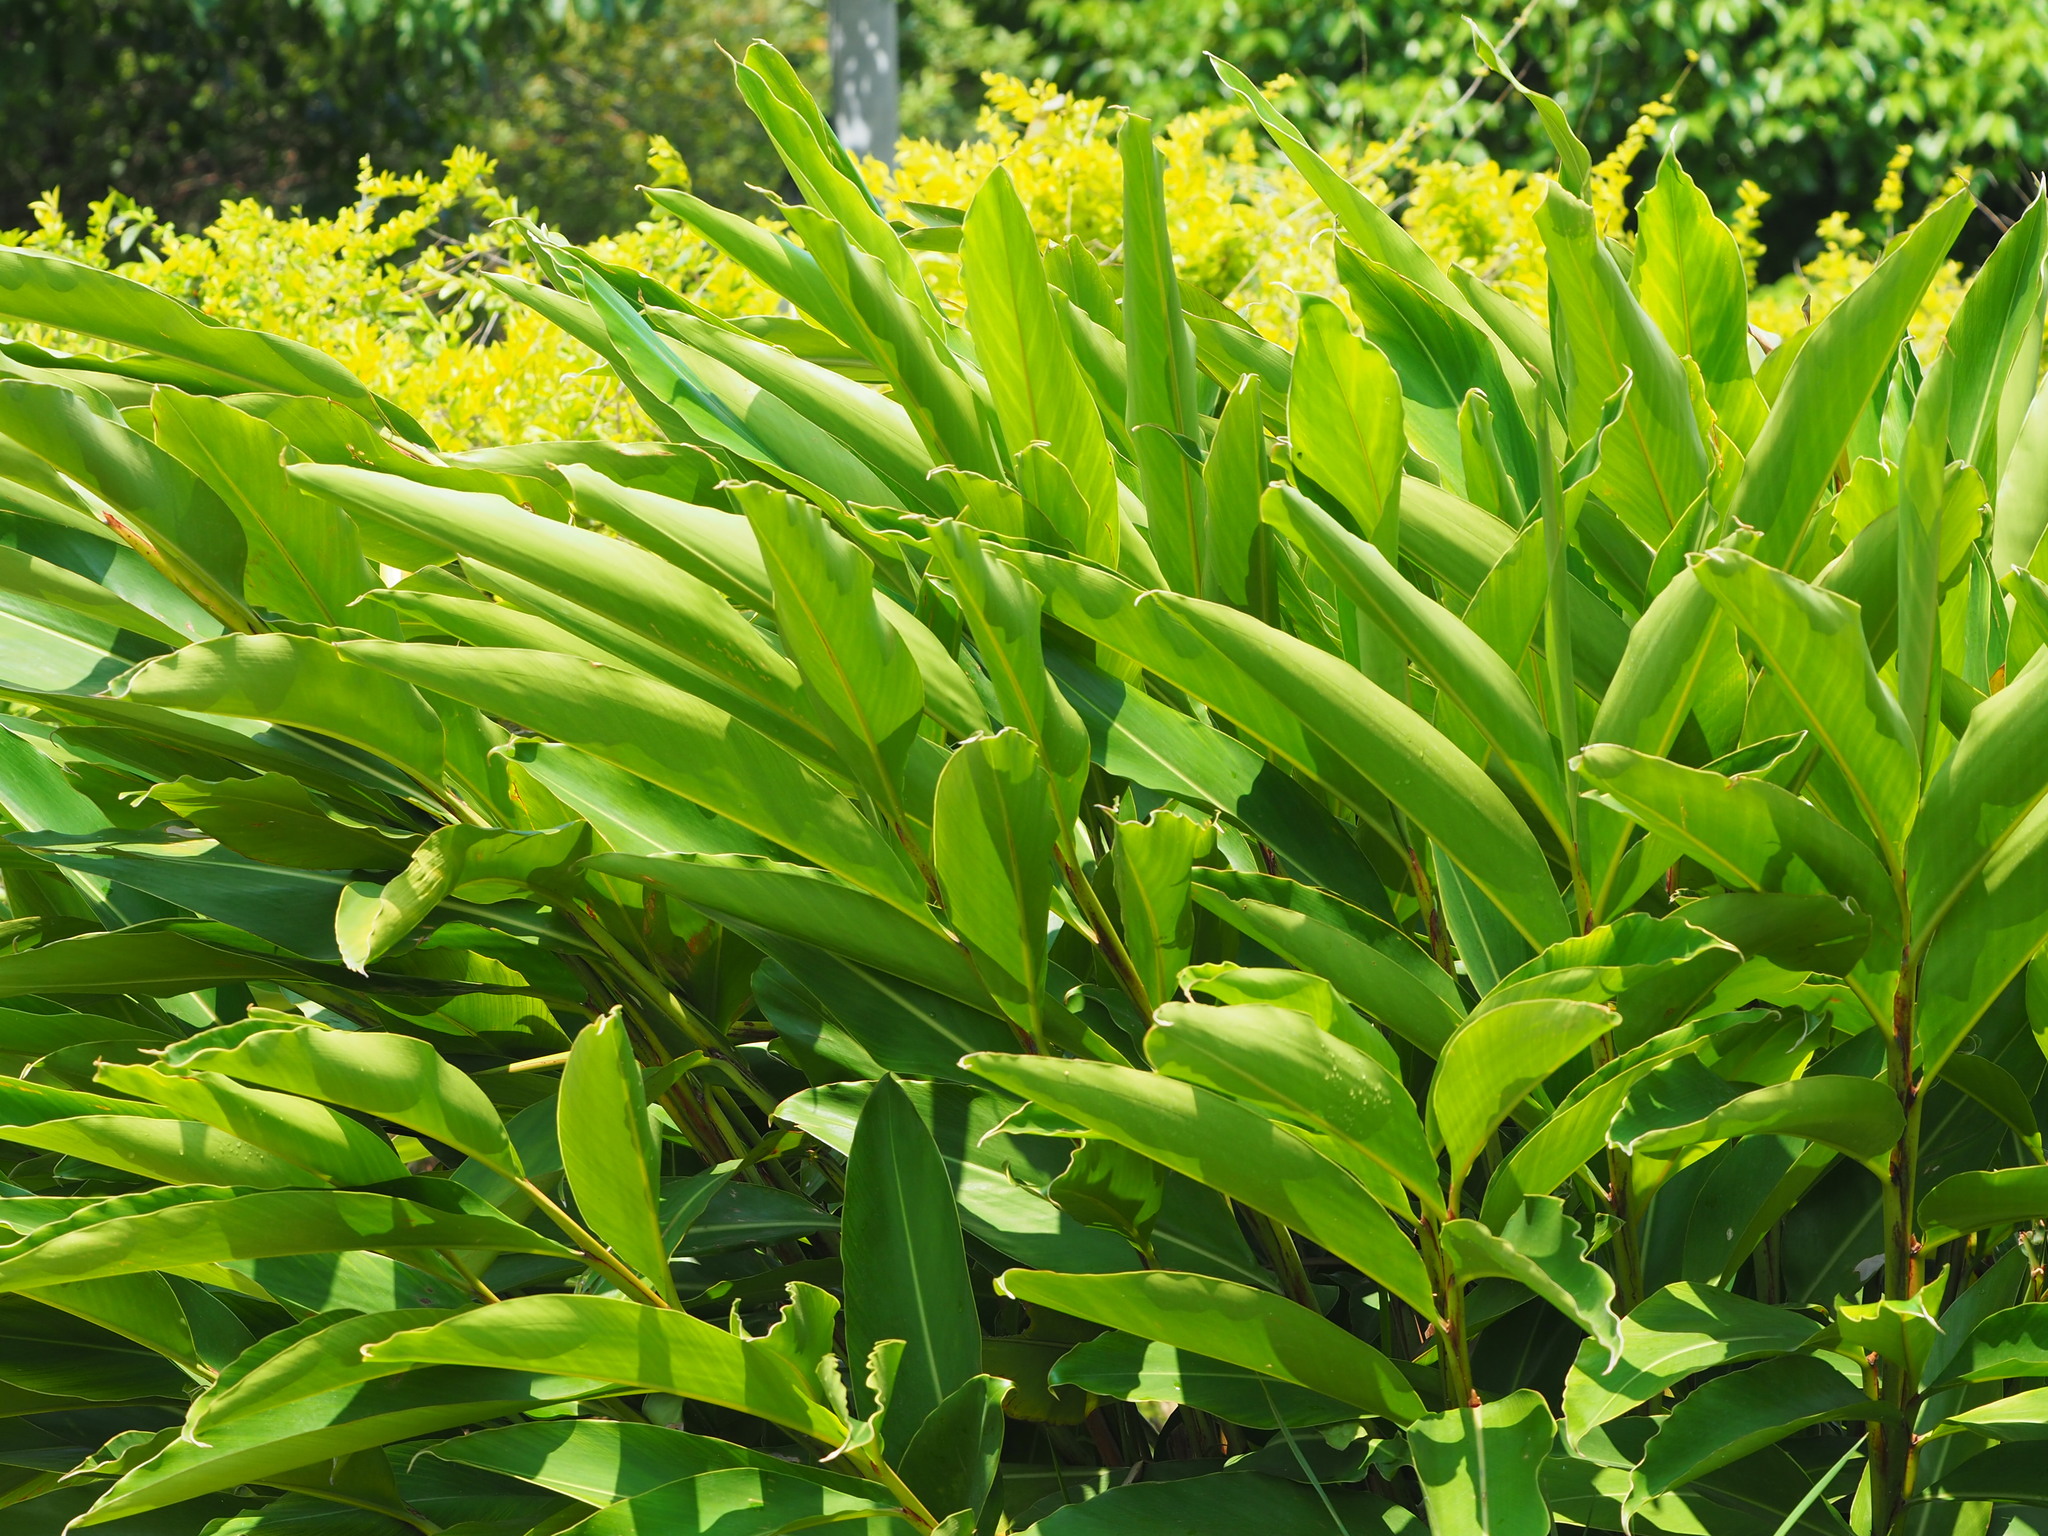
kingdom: Plantae
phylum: Tracheophyta
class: Liliopsida
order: Zingiberales
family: Zingiberaceae
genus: Alpinia
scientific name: Alpinia zerumbet
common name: Shellplant
